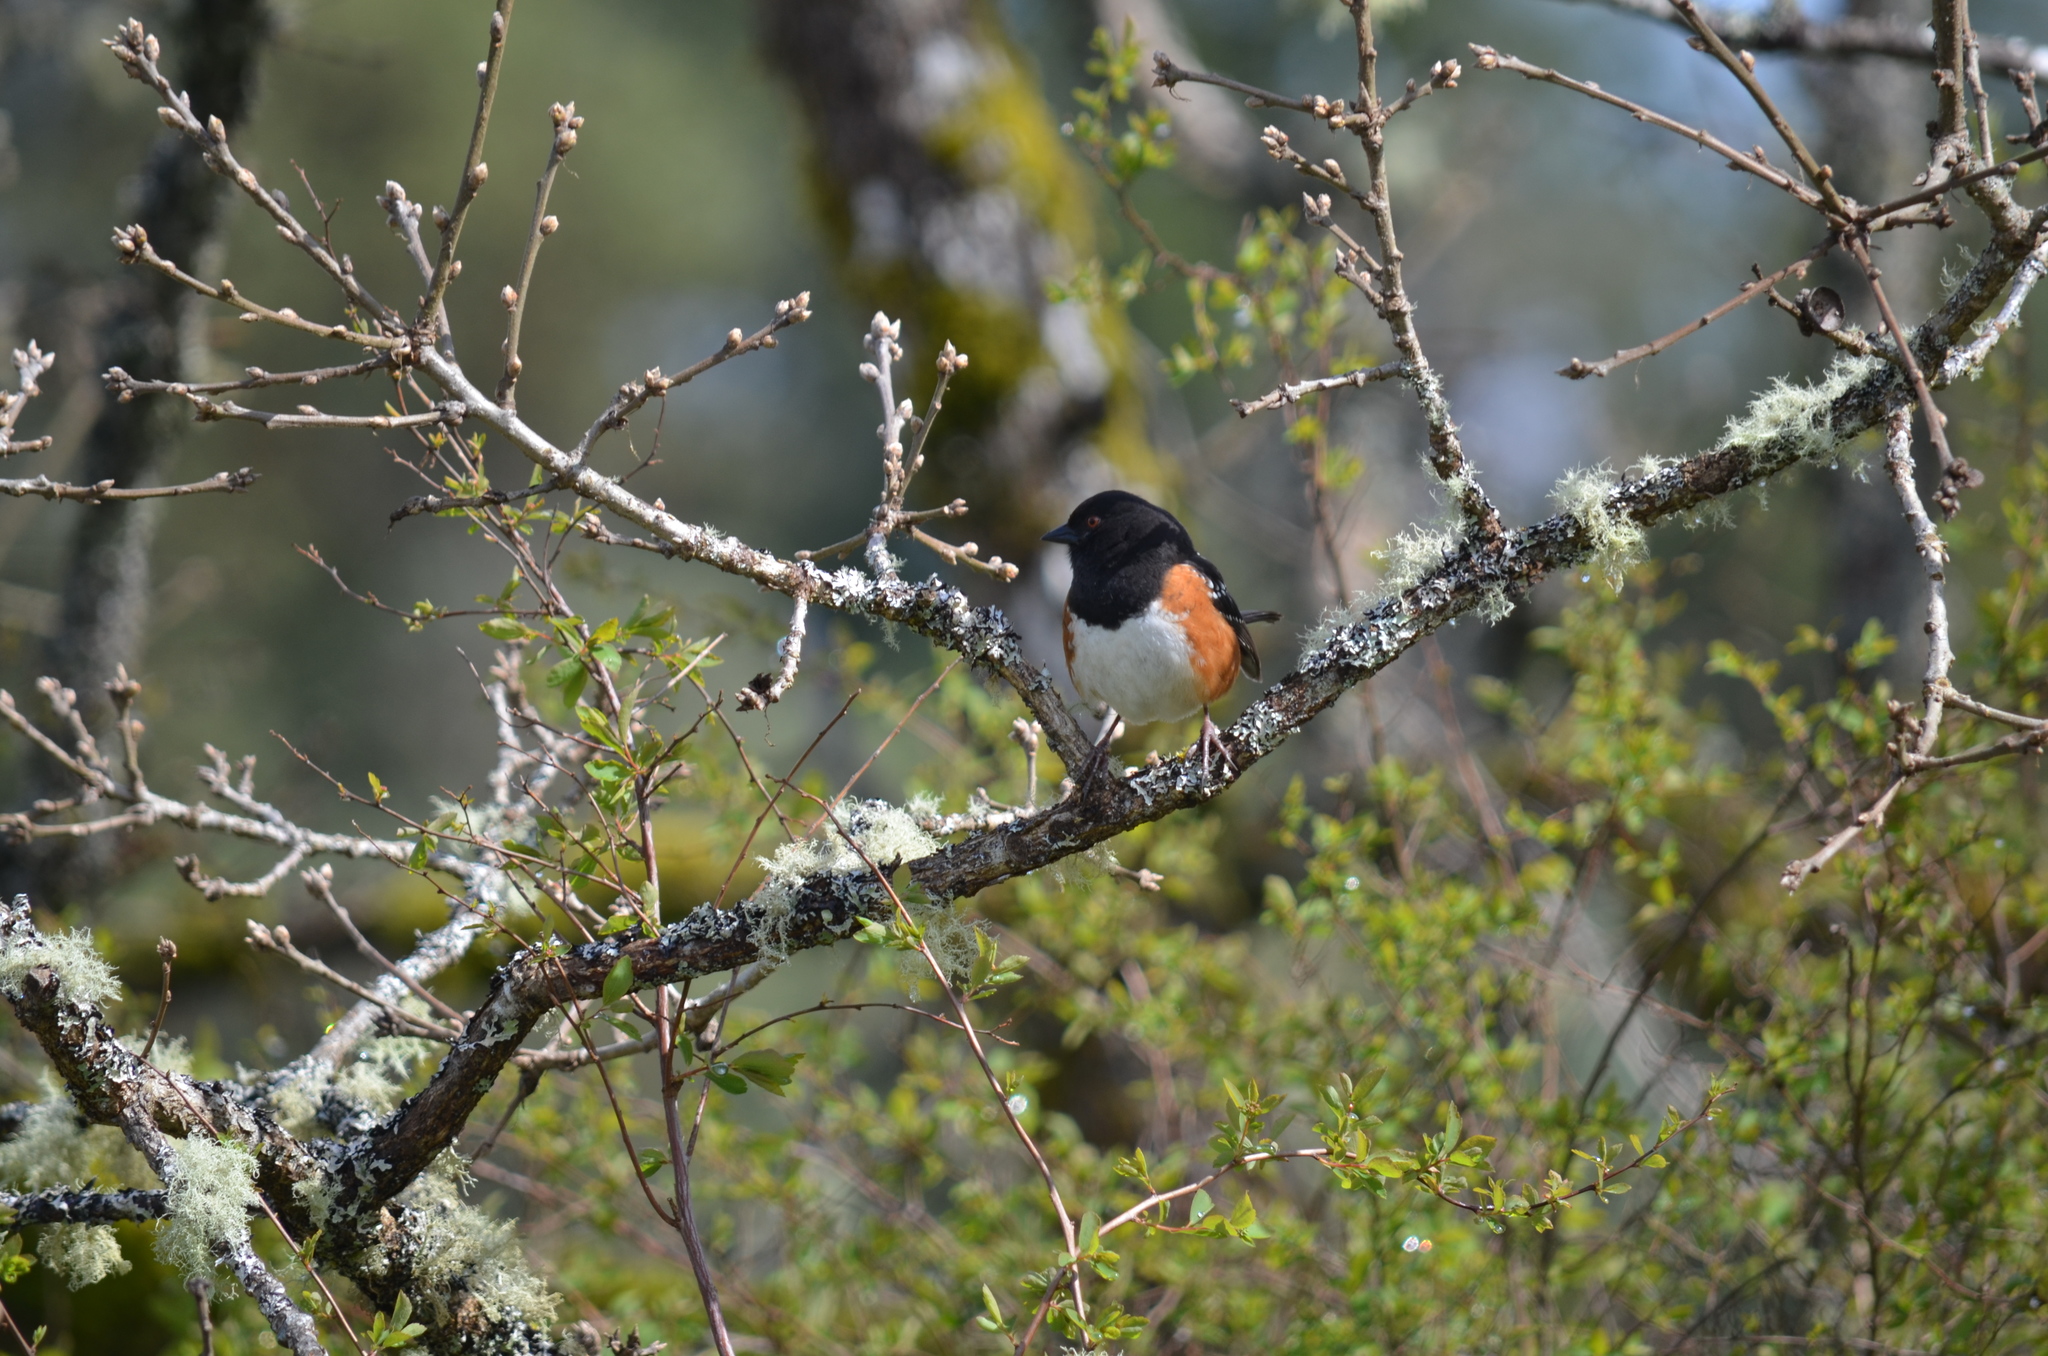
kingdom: Animalia
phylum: Chordata
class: Aves
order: Passeriformes
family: Passerellidae
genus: Pipilo
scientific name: Pipilo maculatus
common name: Spotted towhee
